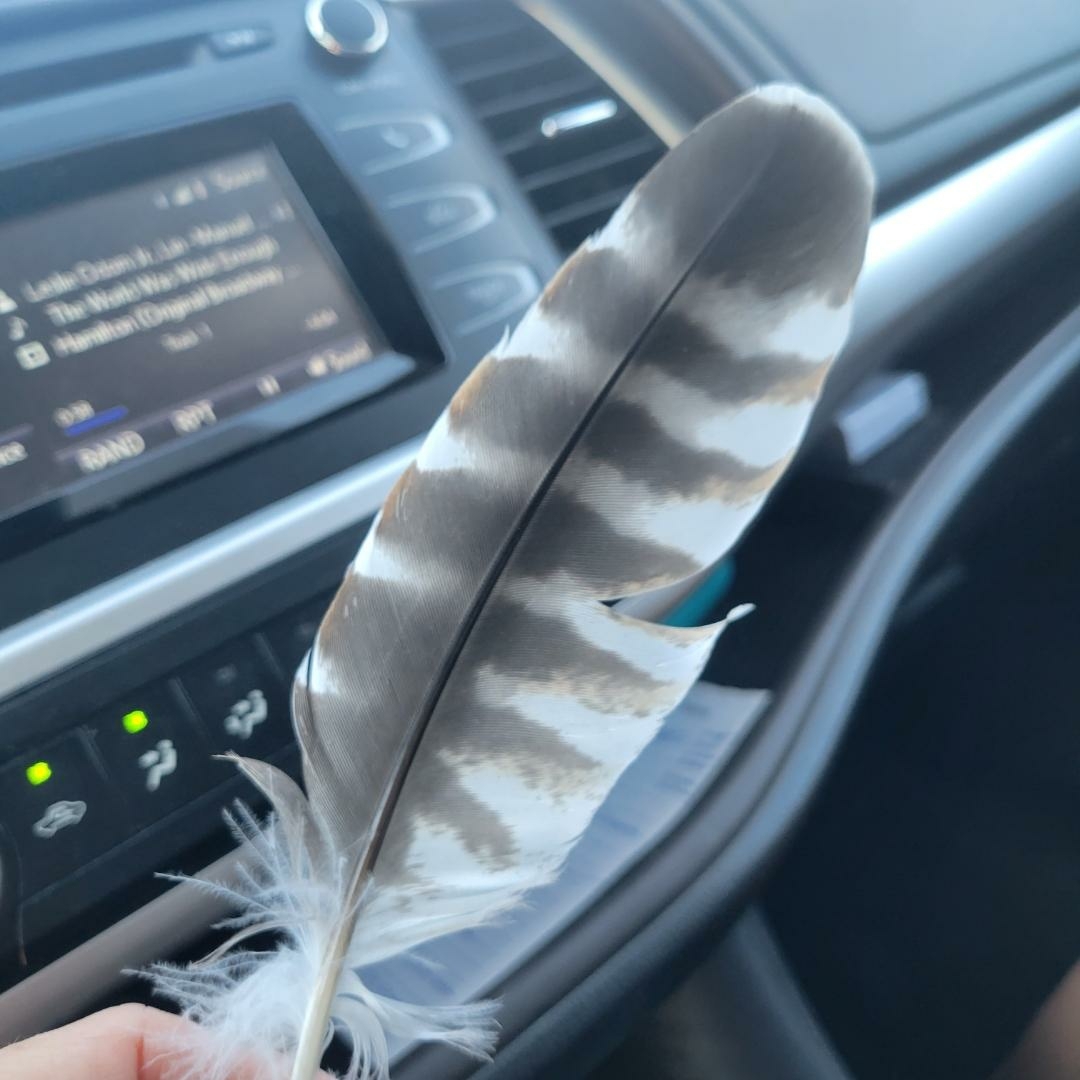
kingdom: Animalia
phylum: Chordata
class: Aves
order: Accipitriformes
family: Accipitridae
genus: Buteo
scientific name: Buteo lineatus
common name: Red-shouldered hawk
